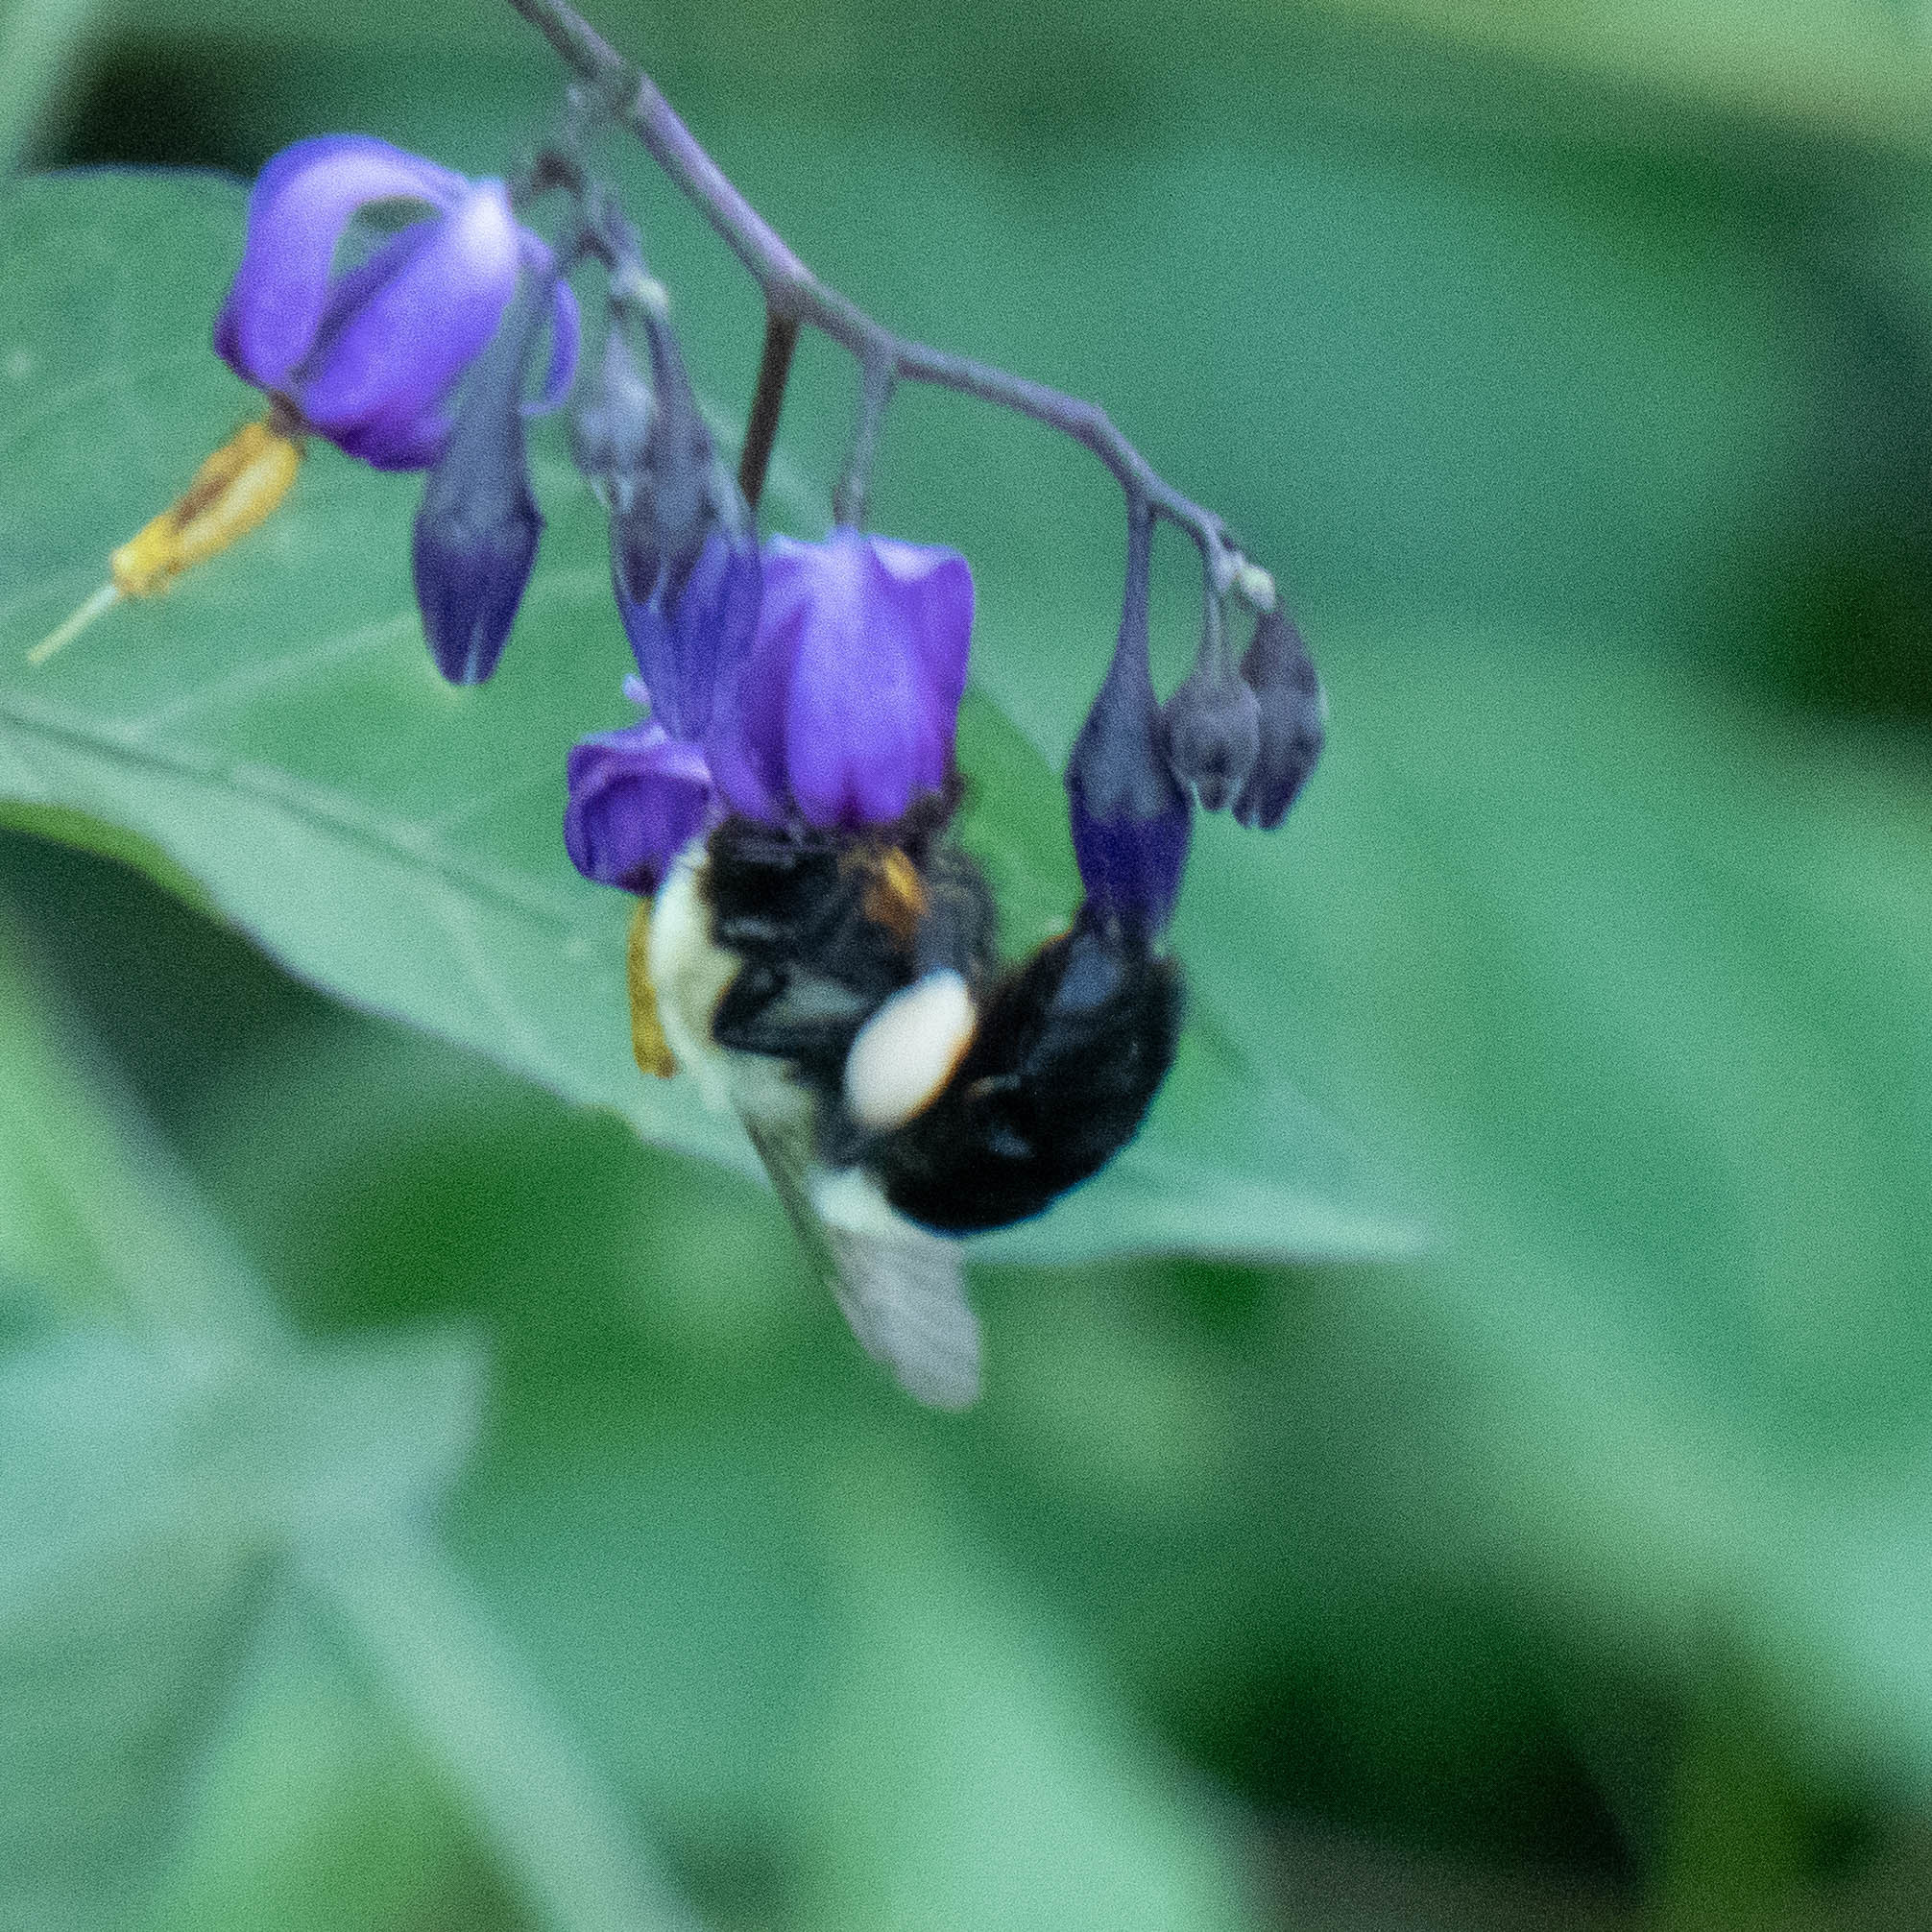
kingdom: Animalia
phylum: Arthropoda
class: Insecta
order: Hymenoptera
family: Apidae
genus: Bombus
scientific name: Bombus impatiens
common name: Common eastern bumble bee
